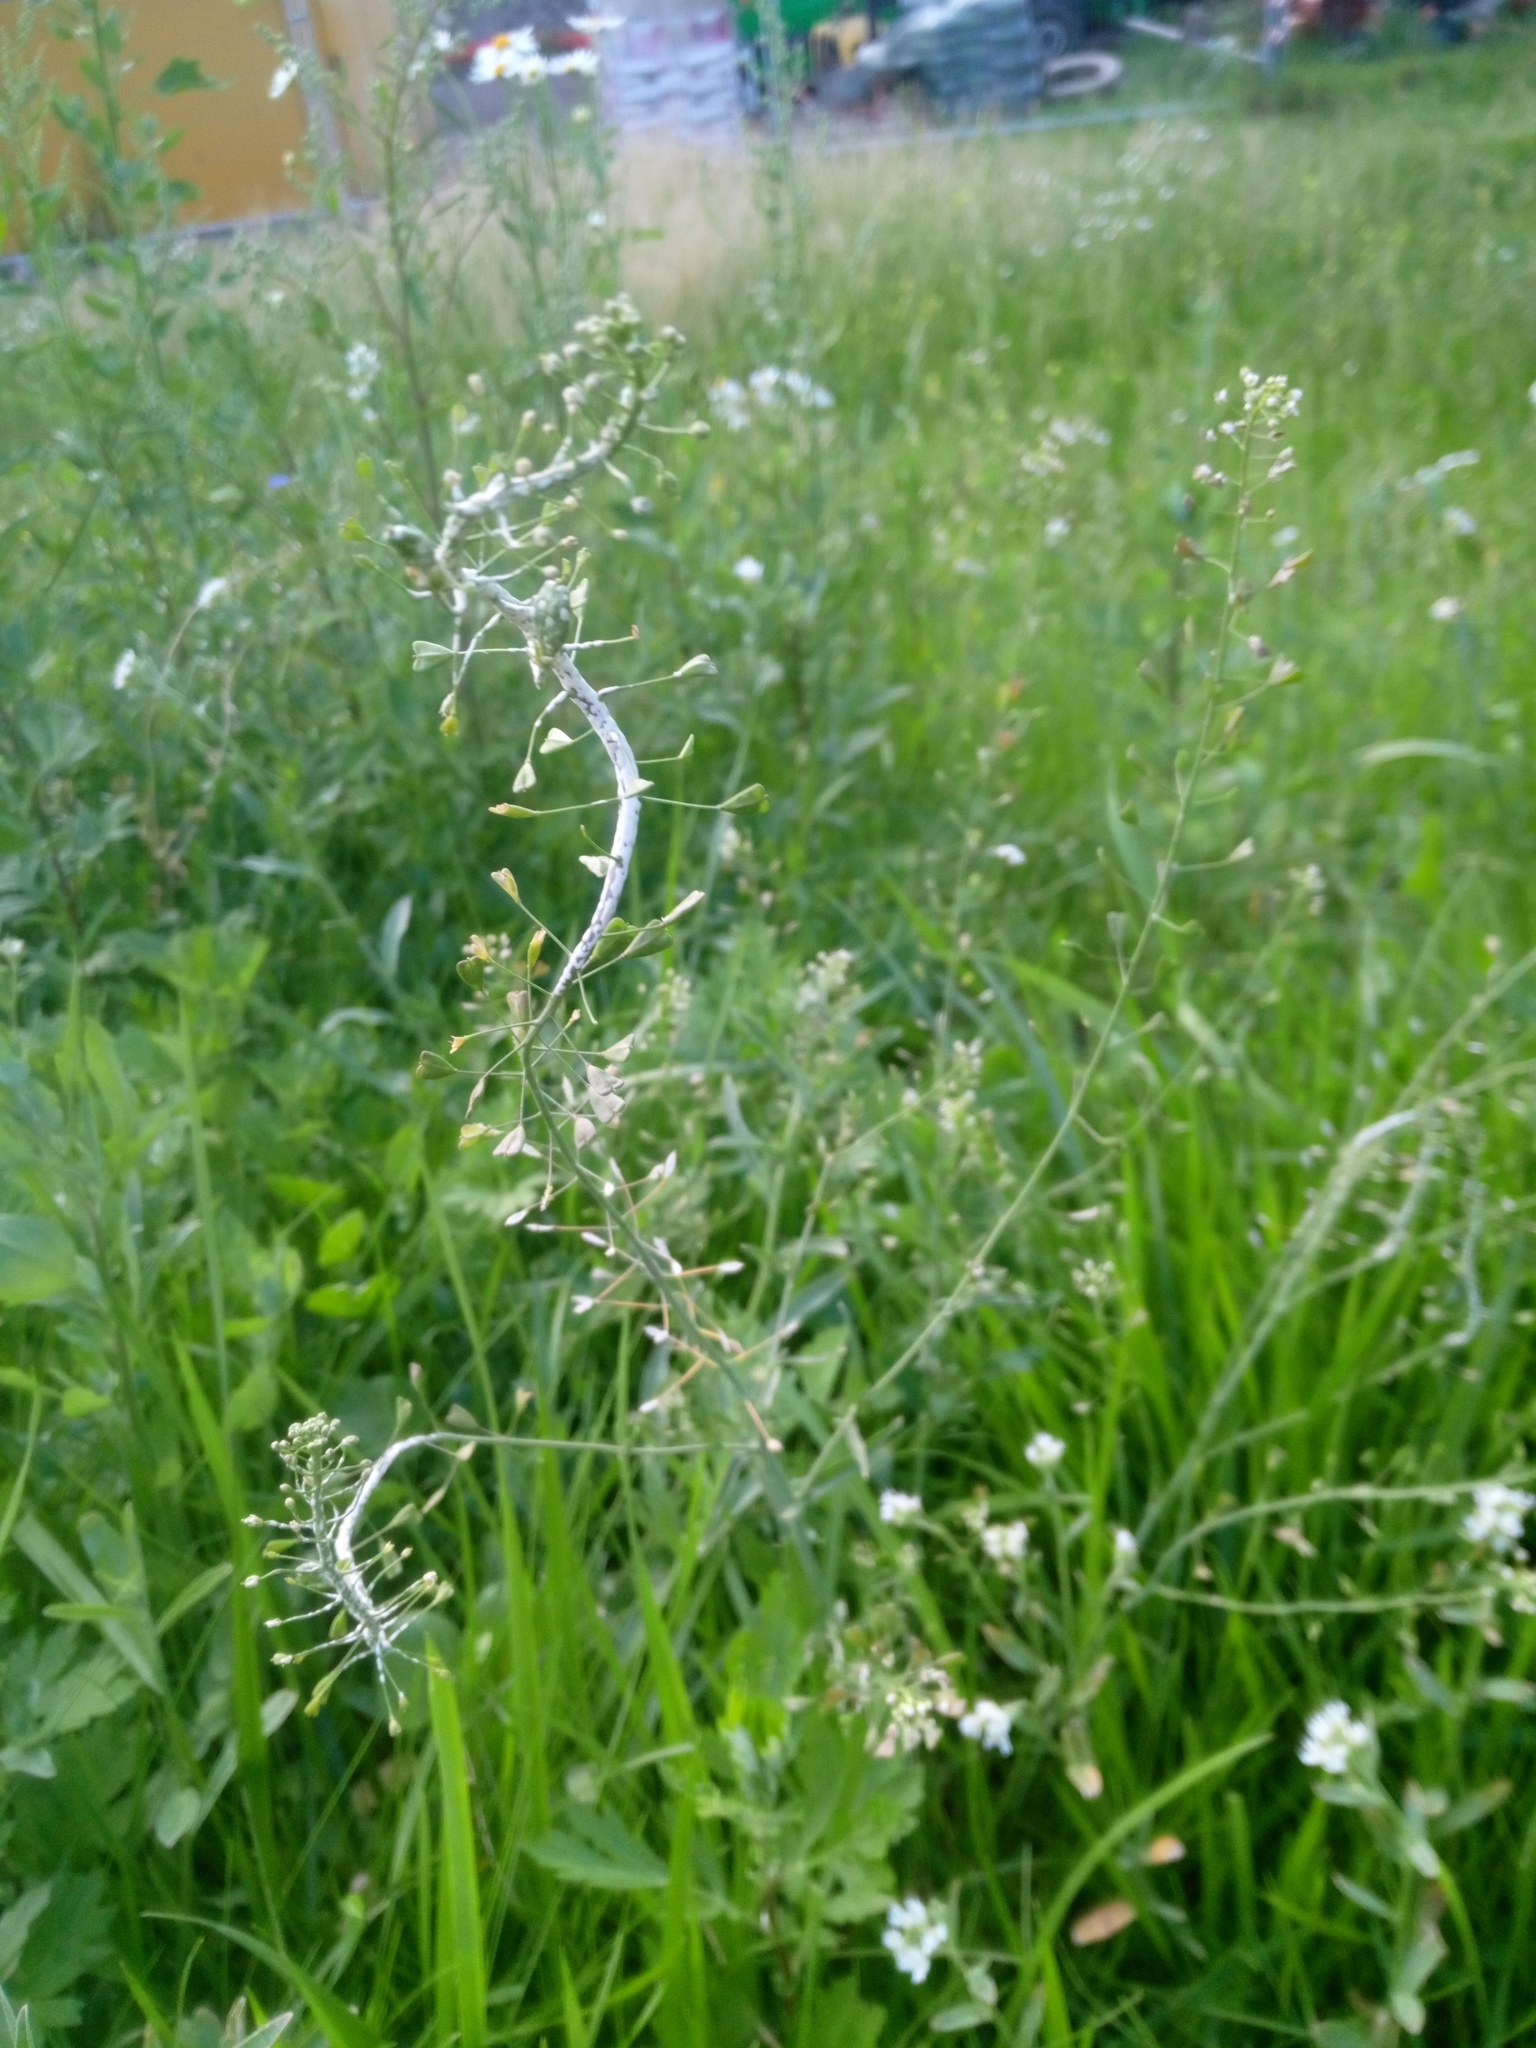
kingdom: Plantae
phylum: Tracheophyta
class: Magnoliopsida
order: Brassicales
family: Brassicaceae
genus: Capsella
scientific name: Capsella bursa-pastoris
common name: Shepherd's purse
